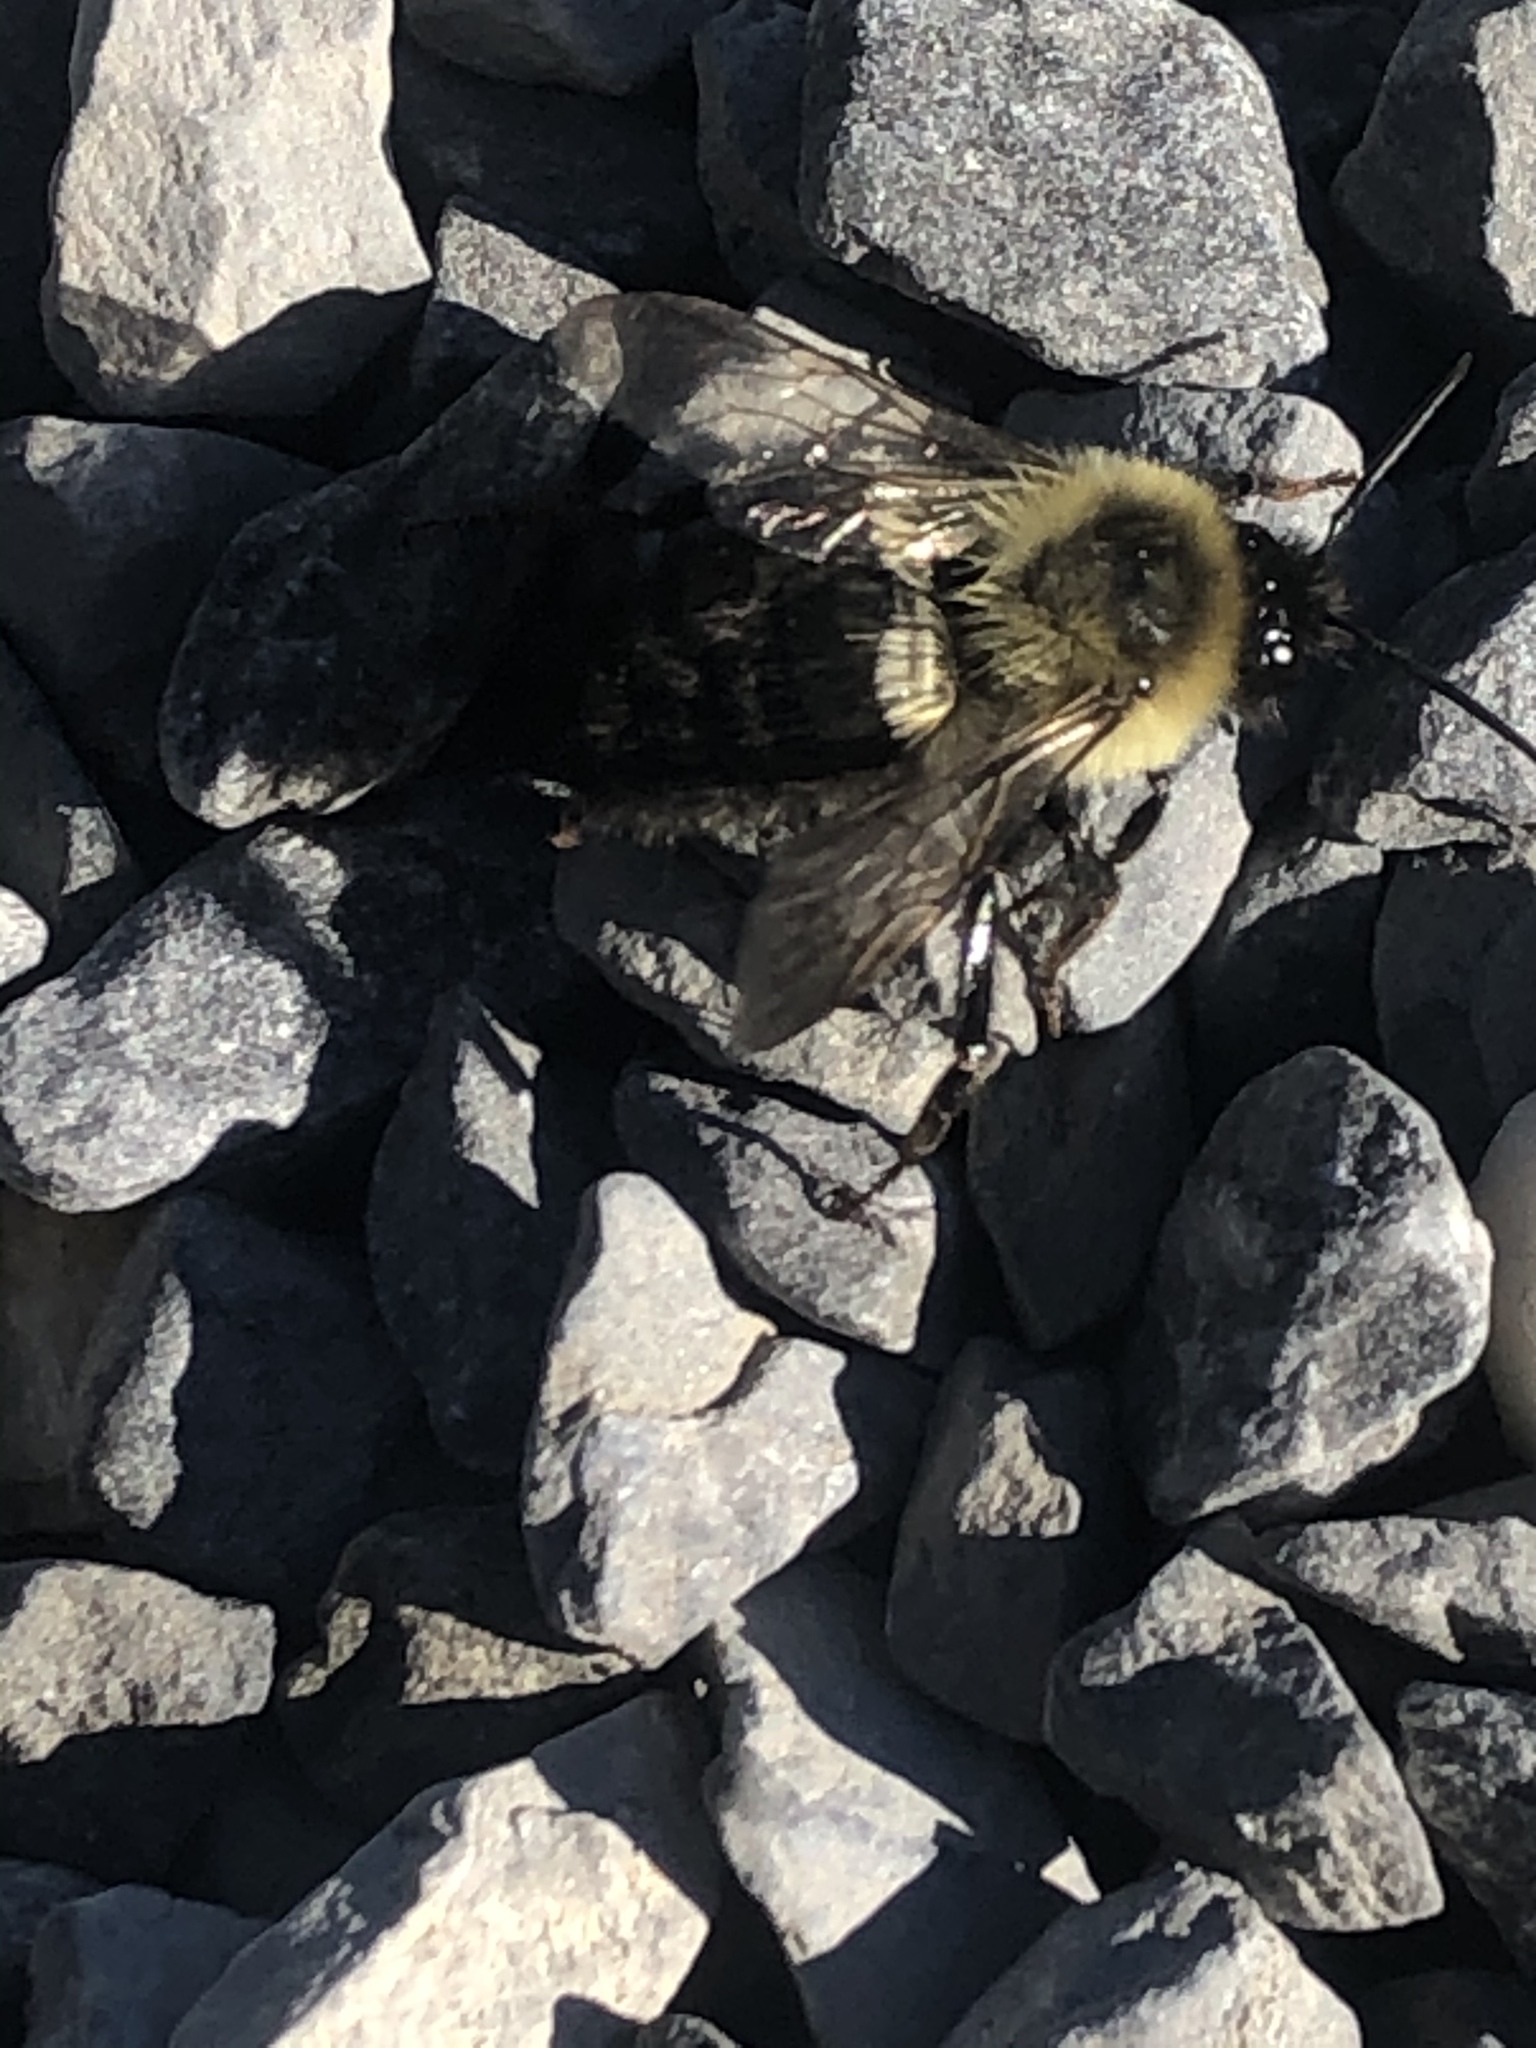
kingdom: Animalia
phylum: Arthropoda
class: Insecta
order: Hymenoptera
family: Apidae
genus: Bombus
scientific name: Bombus impatiens
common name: Common eastern bumble bee
